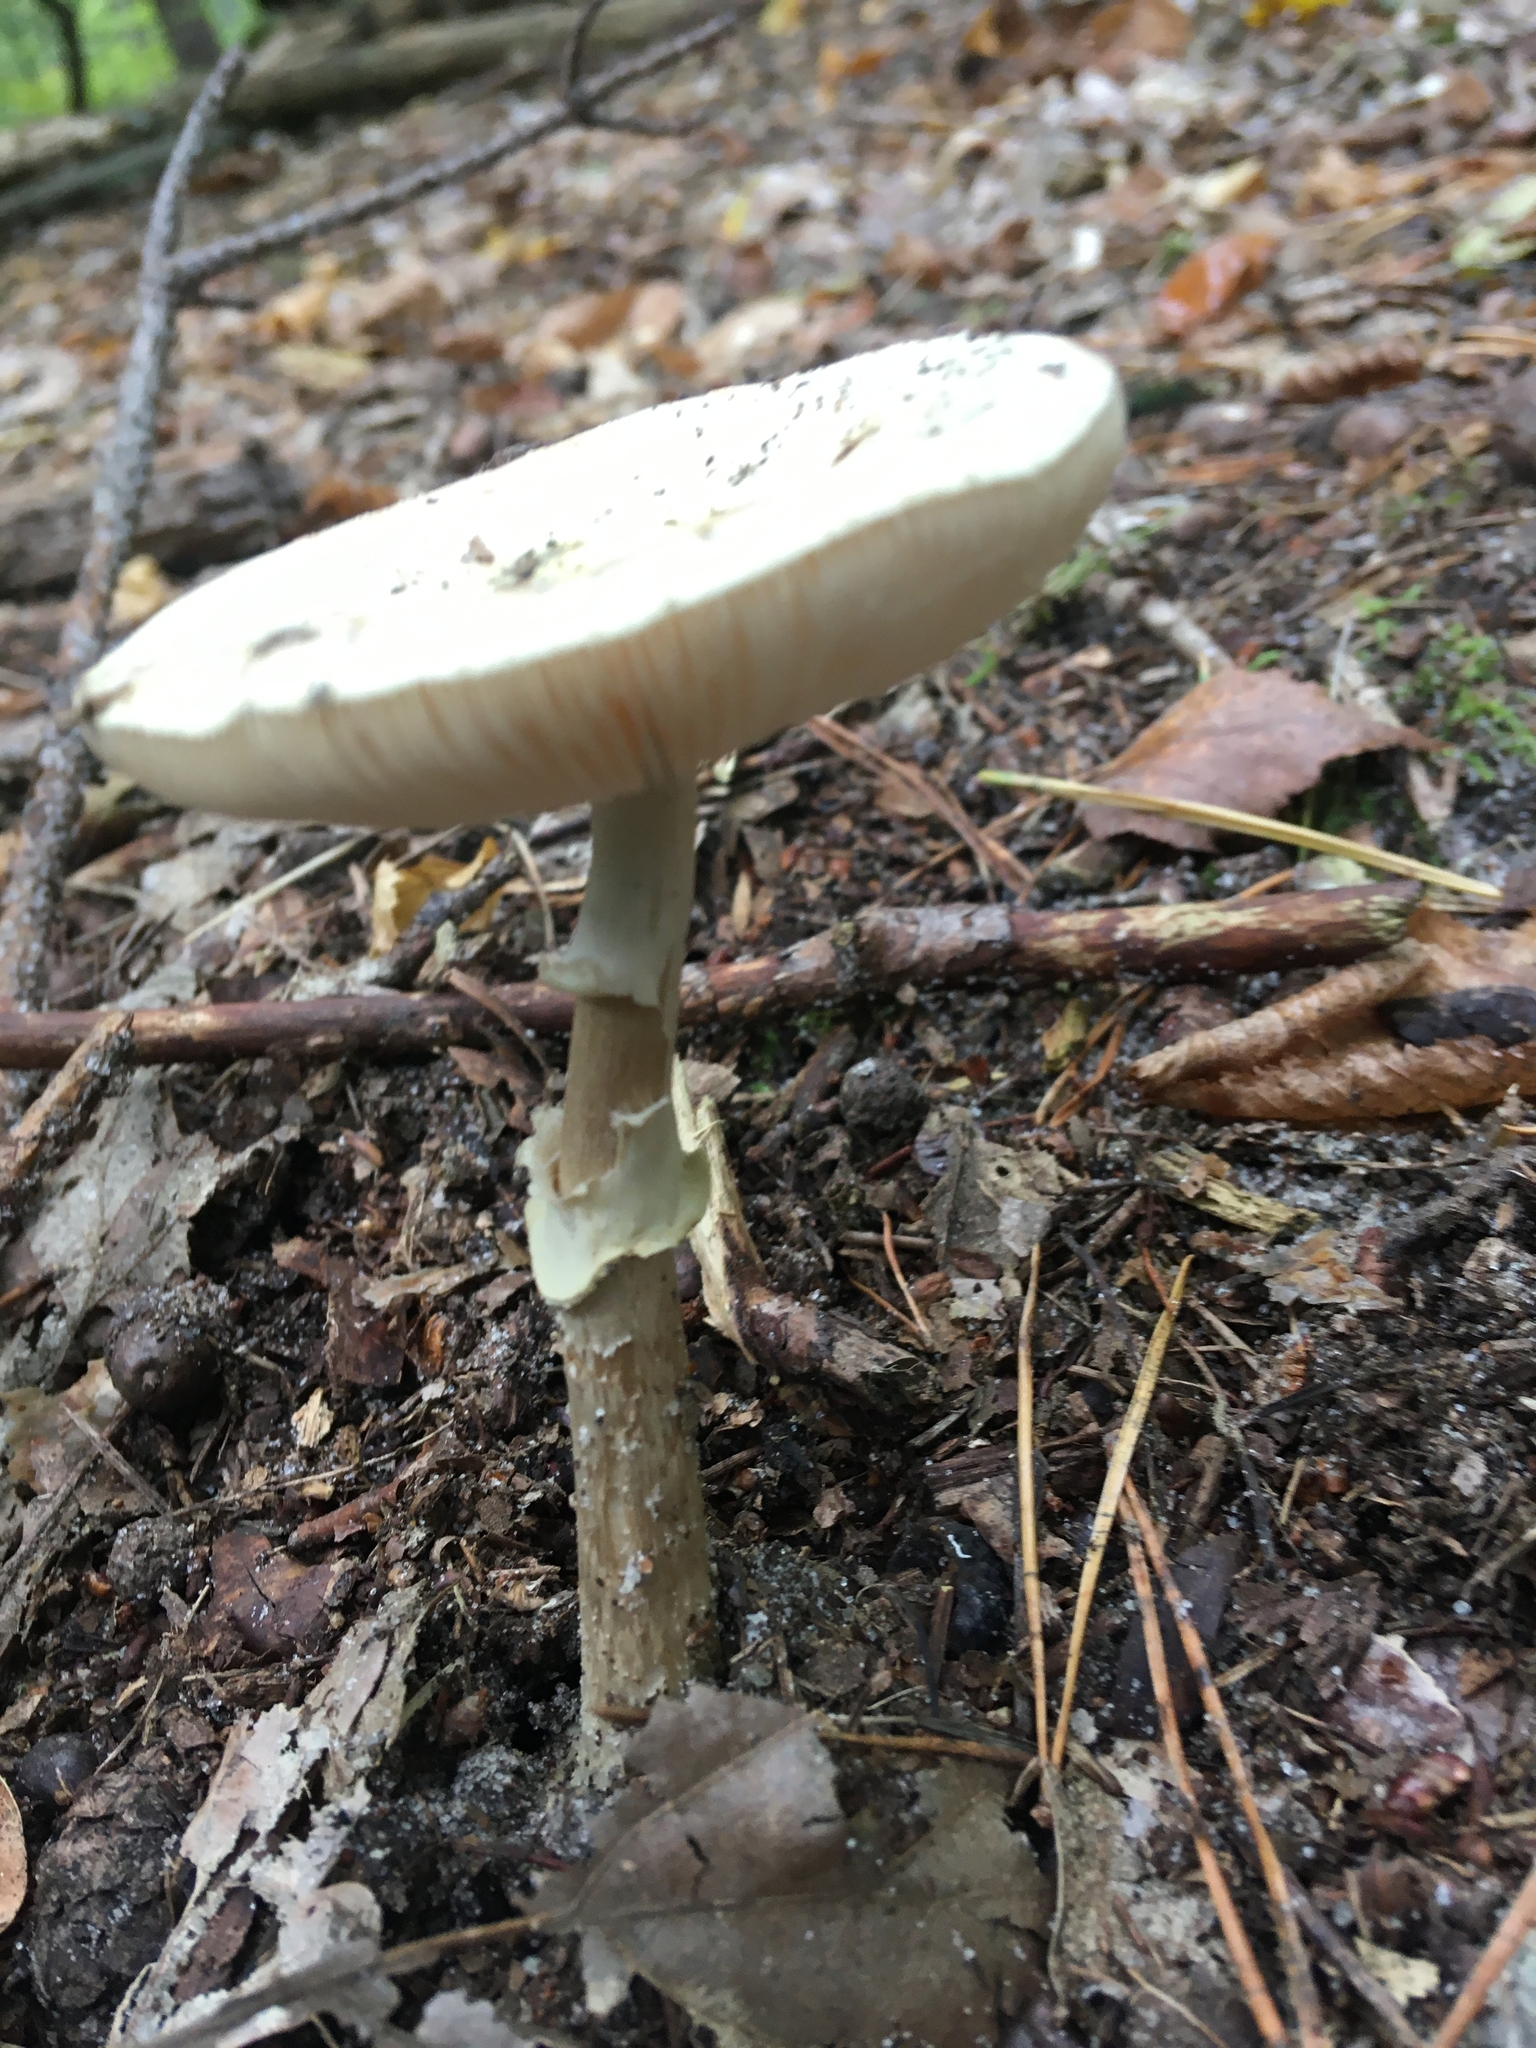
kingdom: Fungi
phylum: Basidiomycota
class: Agaricomycetes
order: Agaricales
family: Amanitaceae
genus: Amanita
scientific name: Amanita citrina
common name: False death-cap
